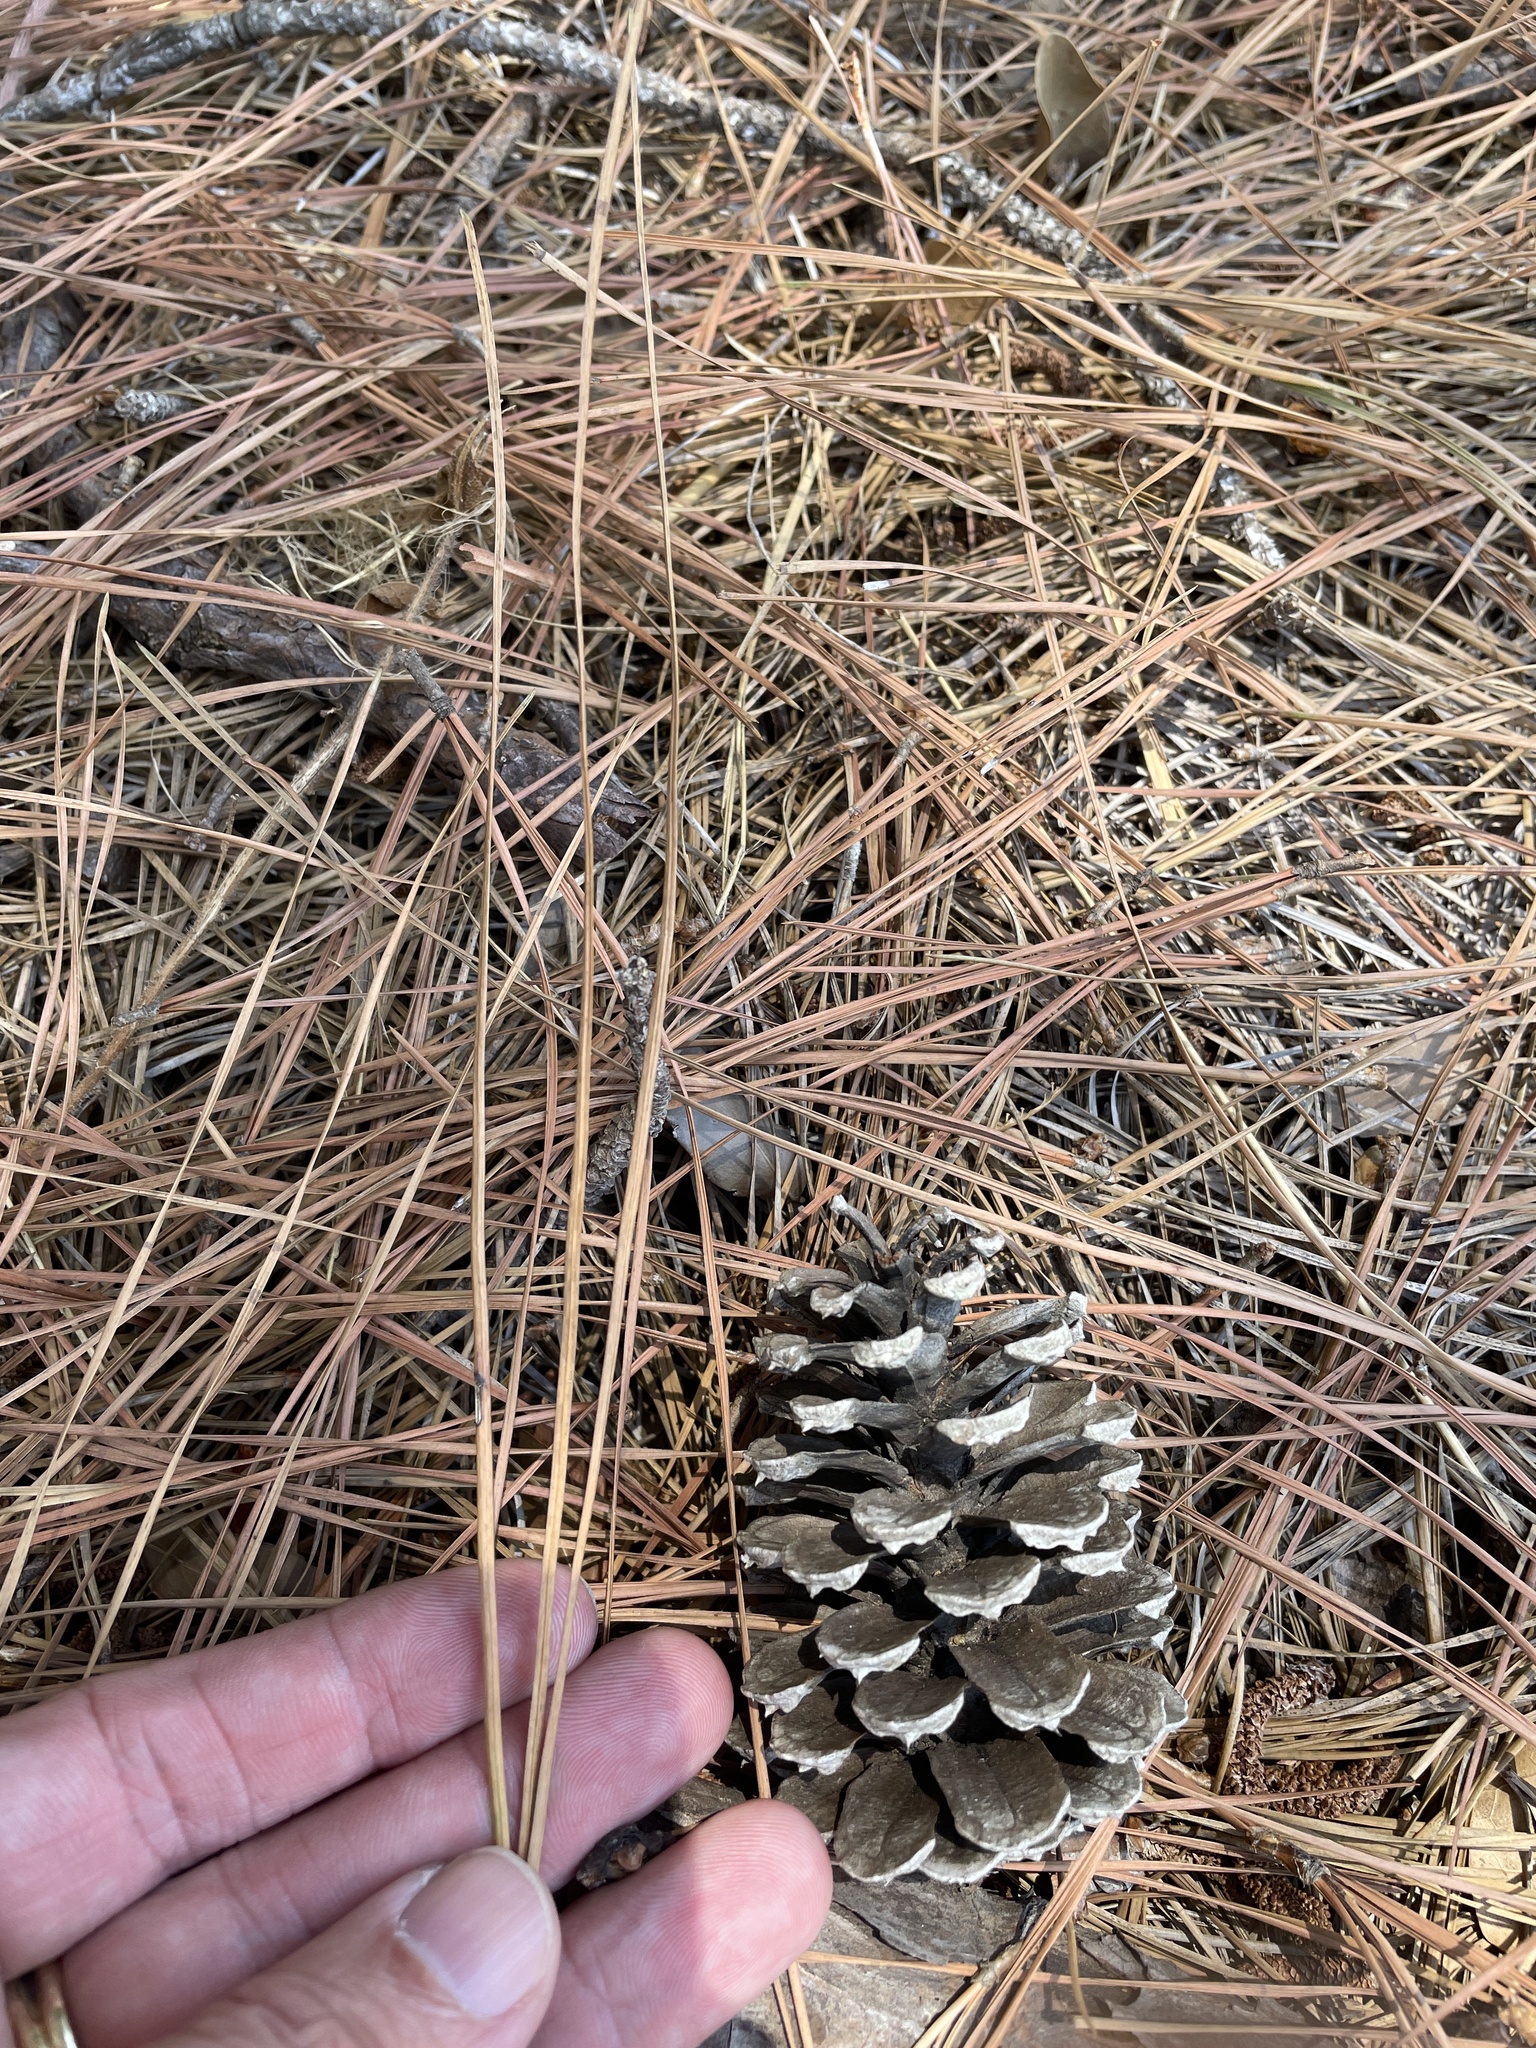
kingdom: Plantae
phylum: Tracheophyta
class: Pinopsida
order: Pinales
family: Pinaceae
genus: Pinus
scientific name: Pinus taeda
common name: Loblolly pine
